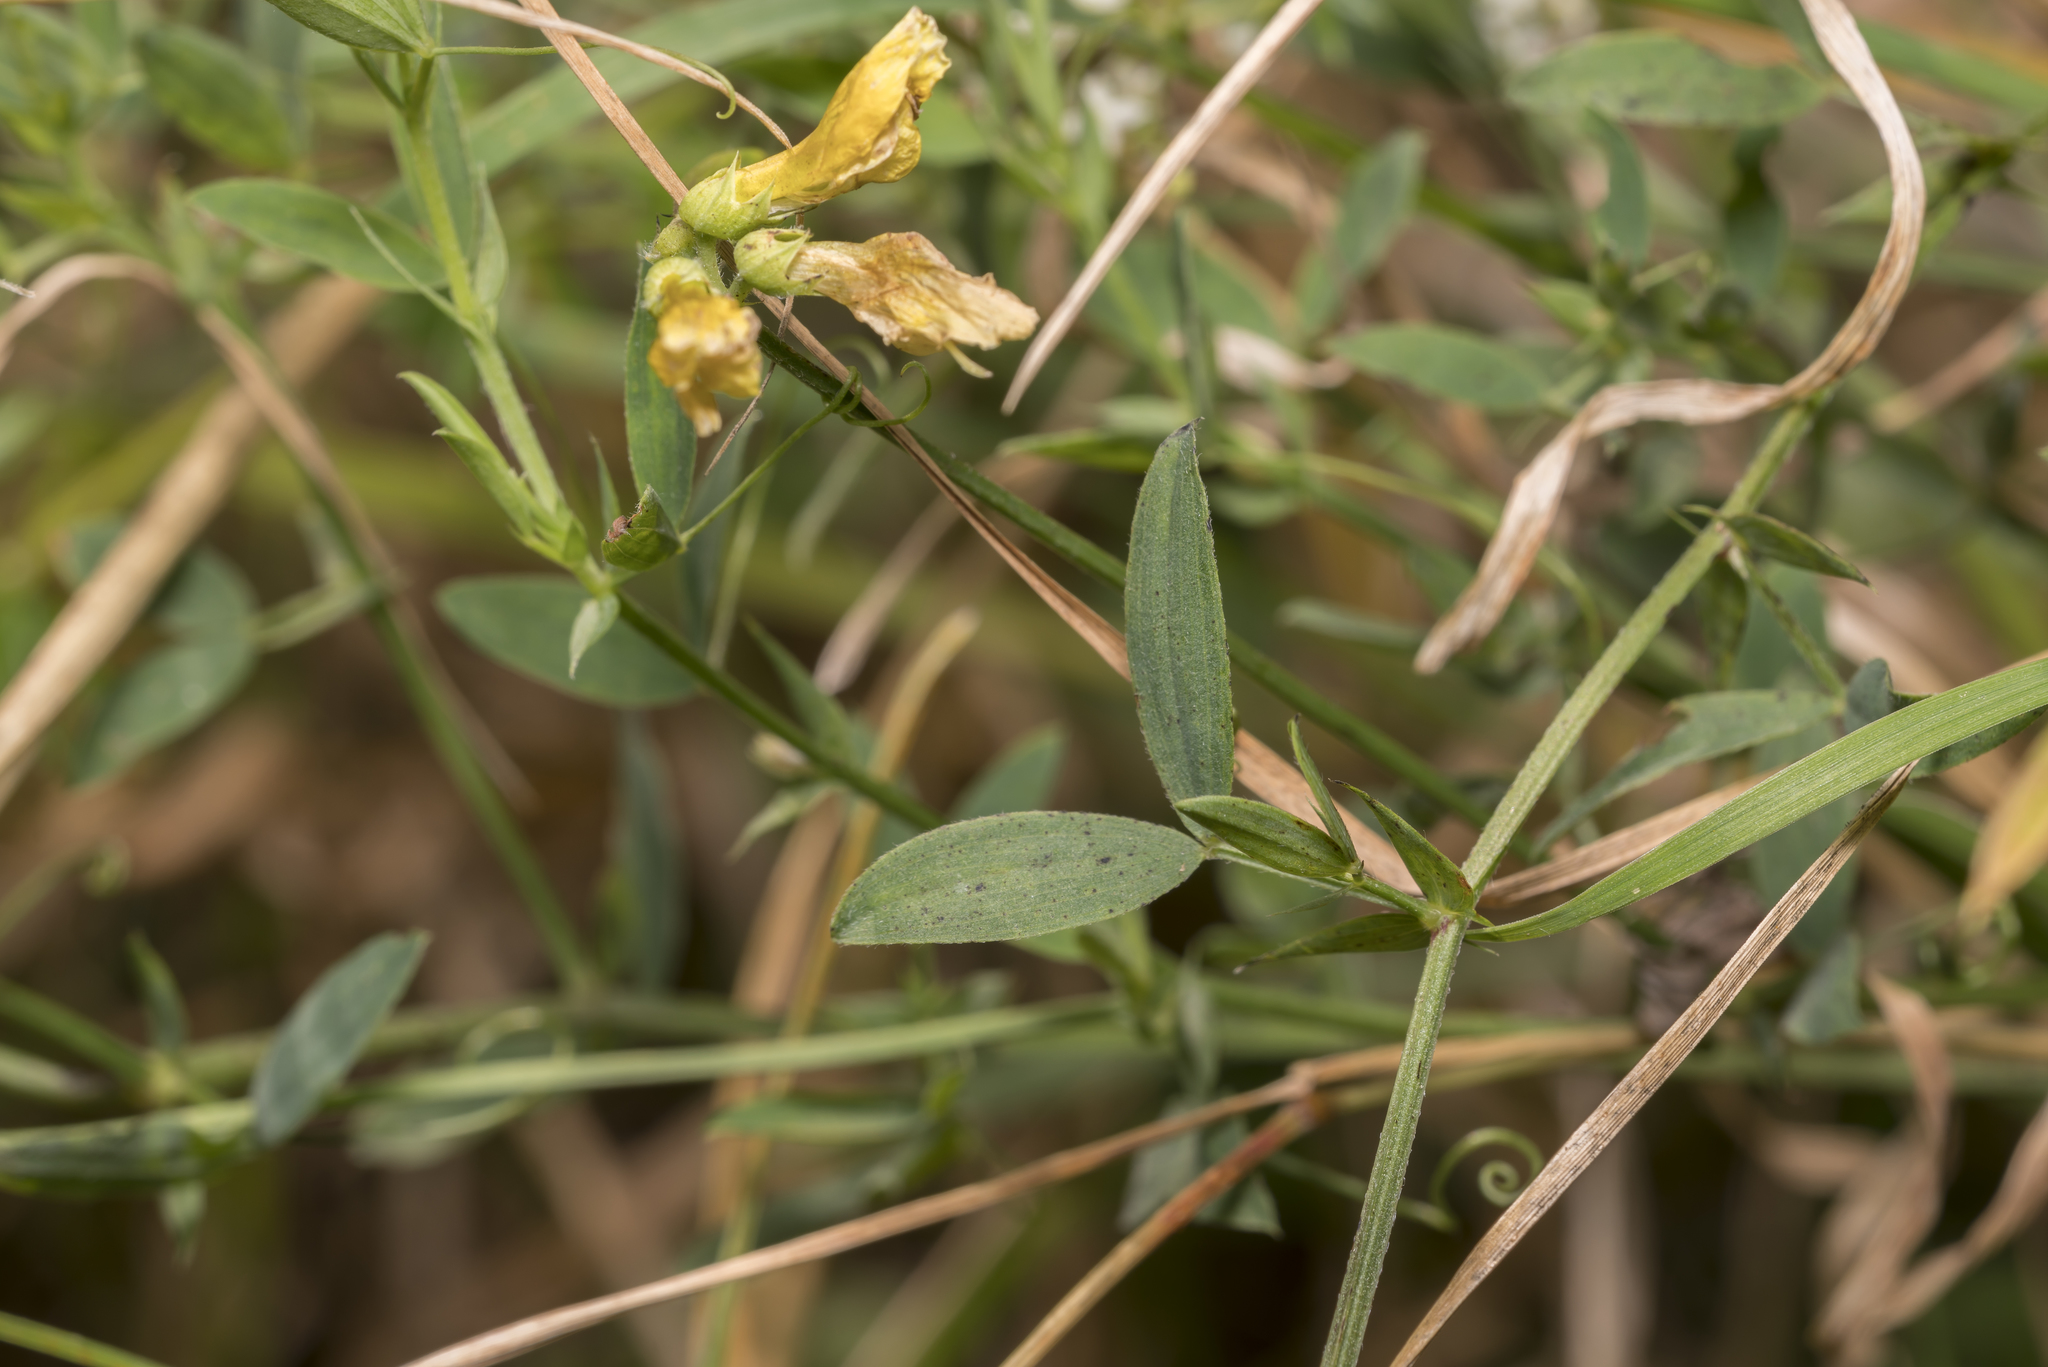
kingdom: Plantae
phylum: Tracheophyta
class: Magnoliopsida
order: Fabales
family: Fabaceae
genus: Lathyrus
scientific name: Lathyrus pratensis
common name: Meadow vetchling
